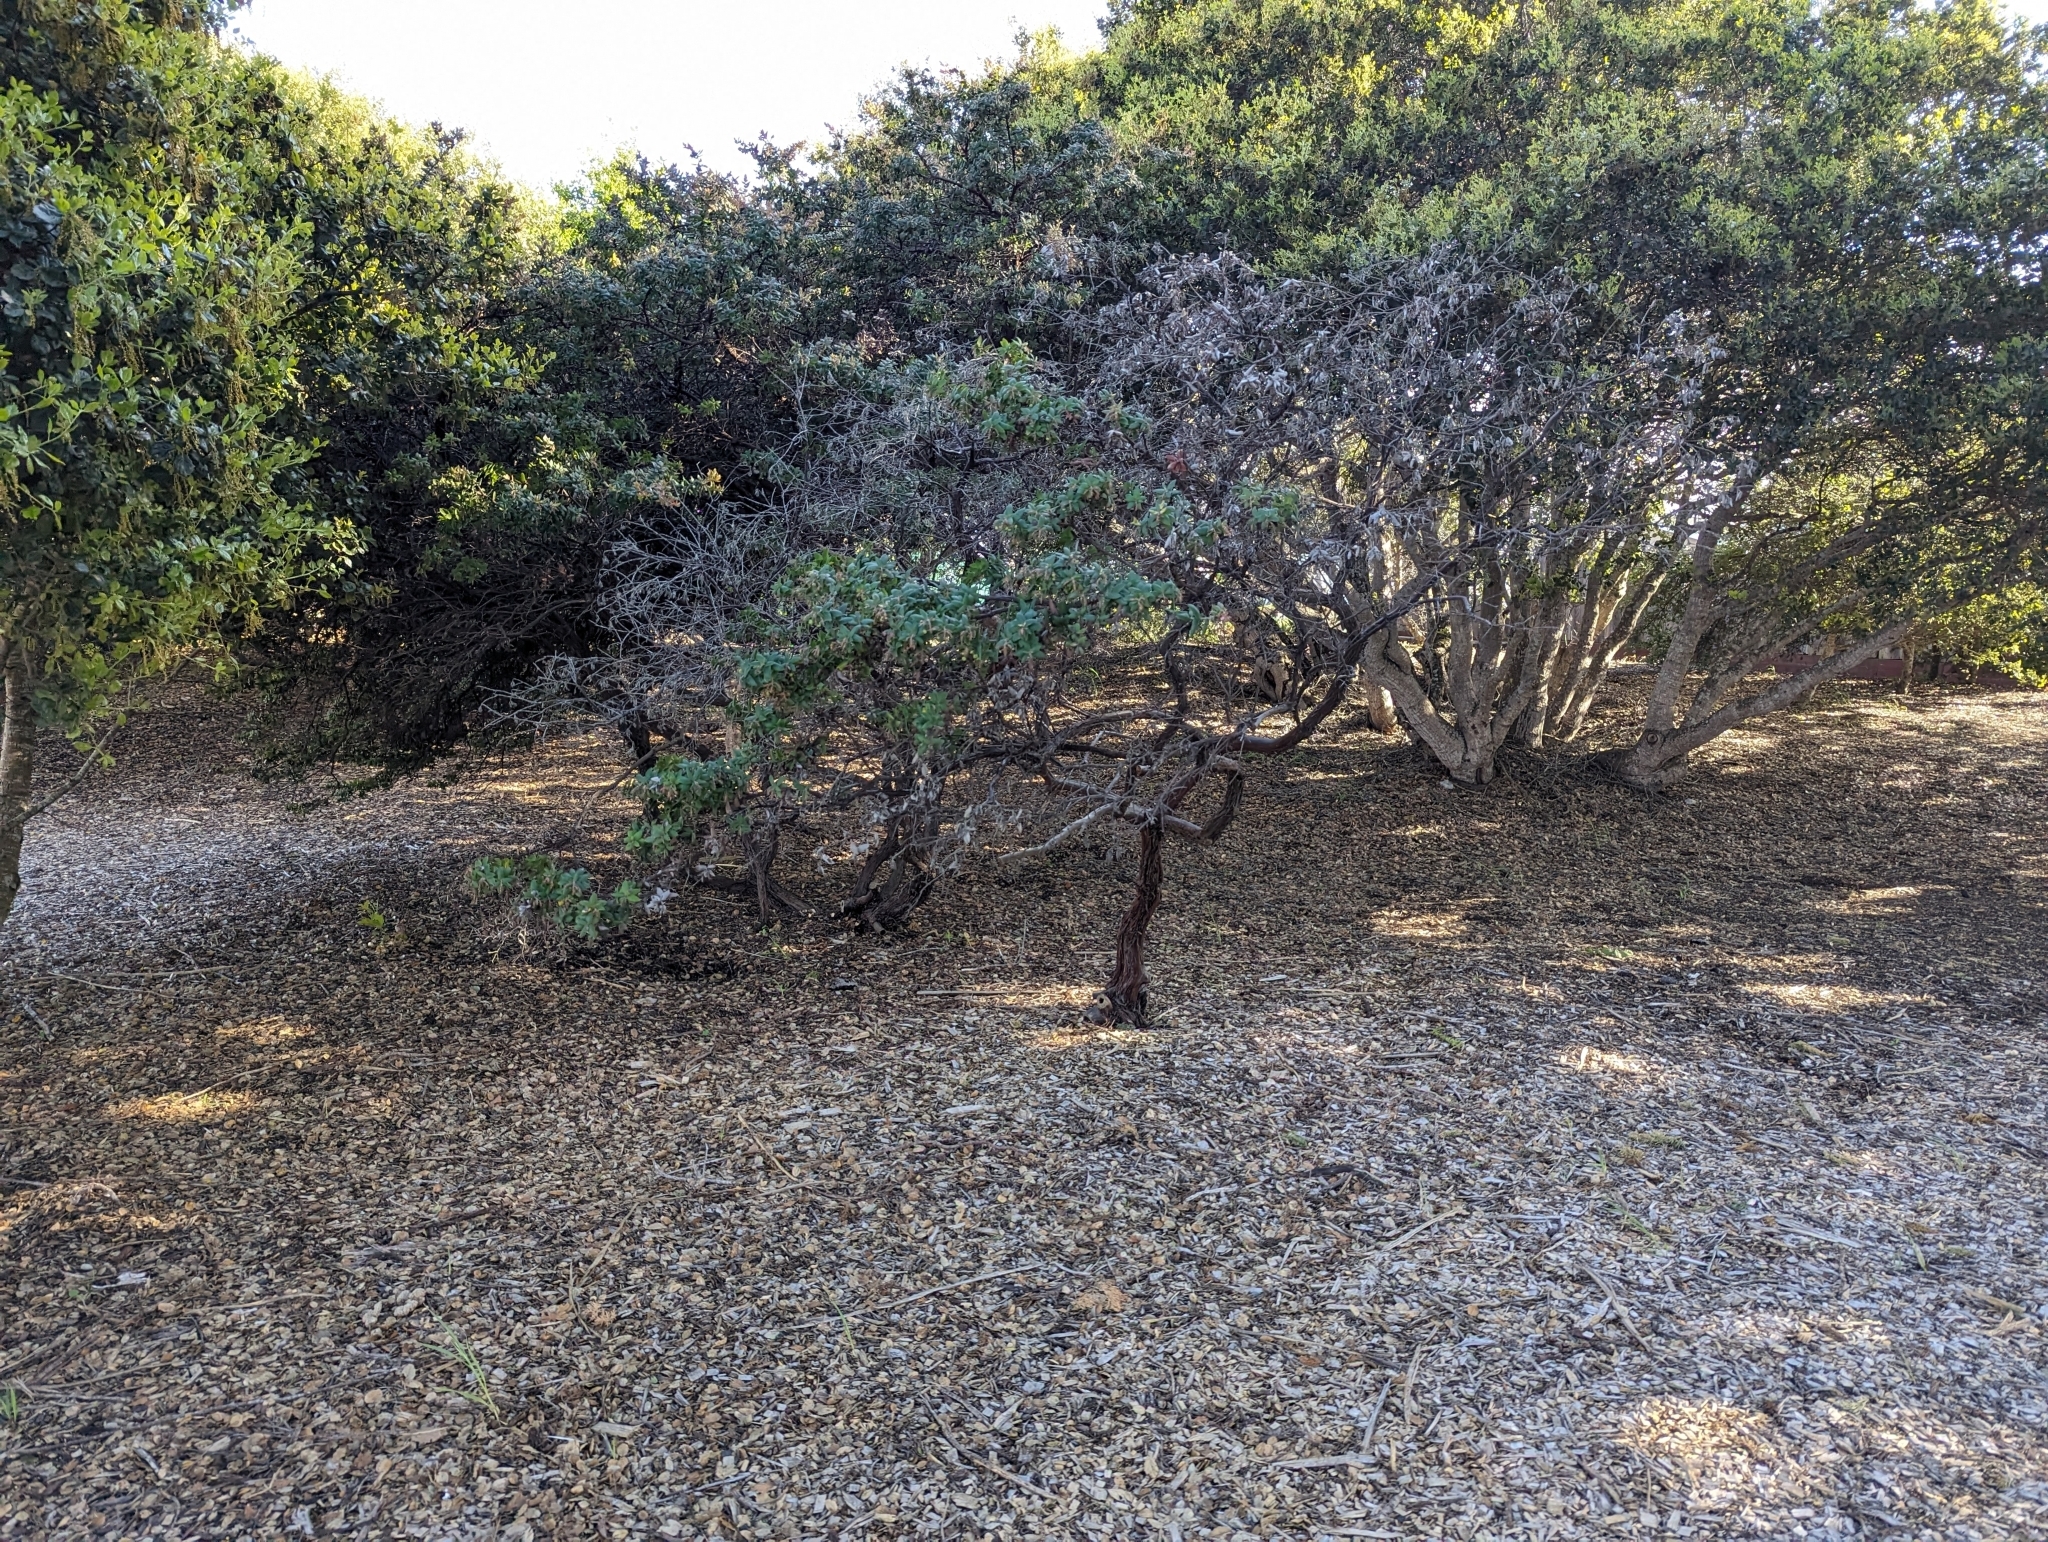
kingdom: Plantae
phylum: Tracheophyta
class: Magnoliopsida
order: Ericales
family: Ericaceae
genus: Arctostaphylos
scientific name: Arctostaphylos pajaroensis
